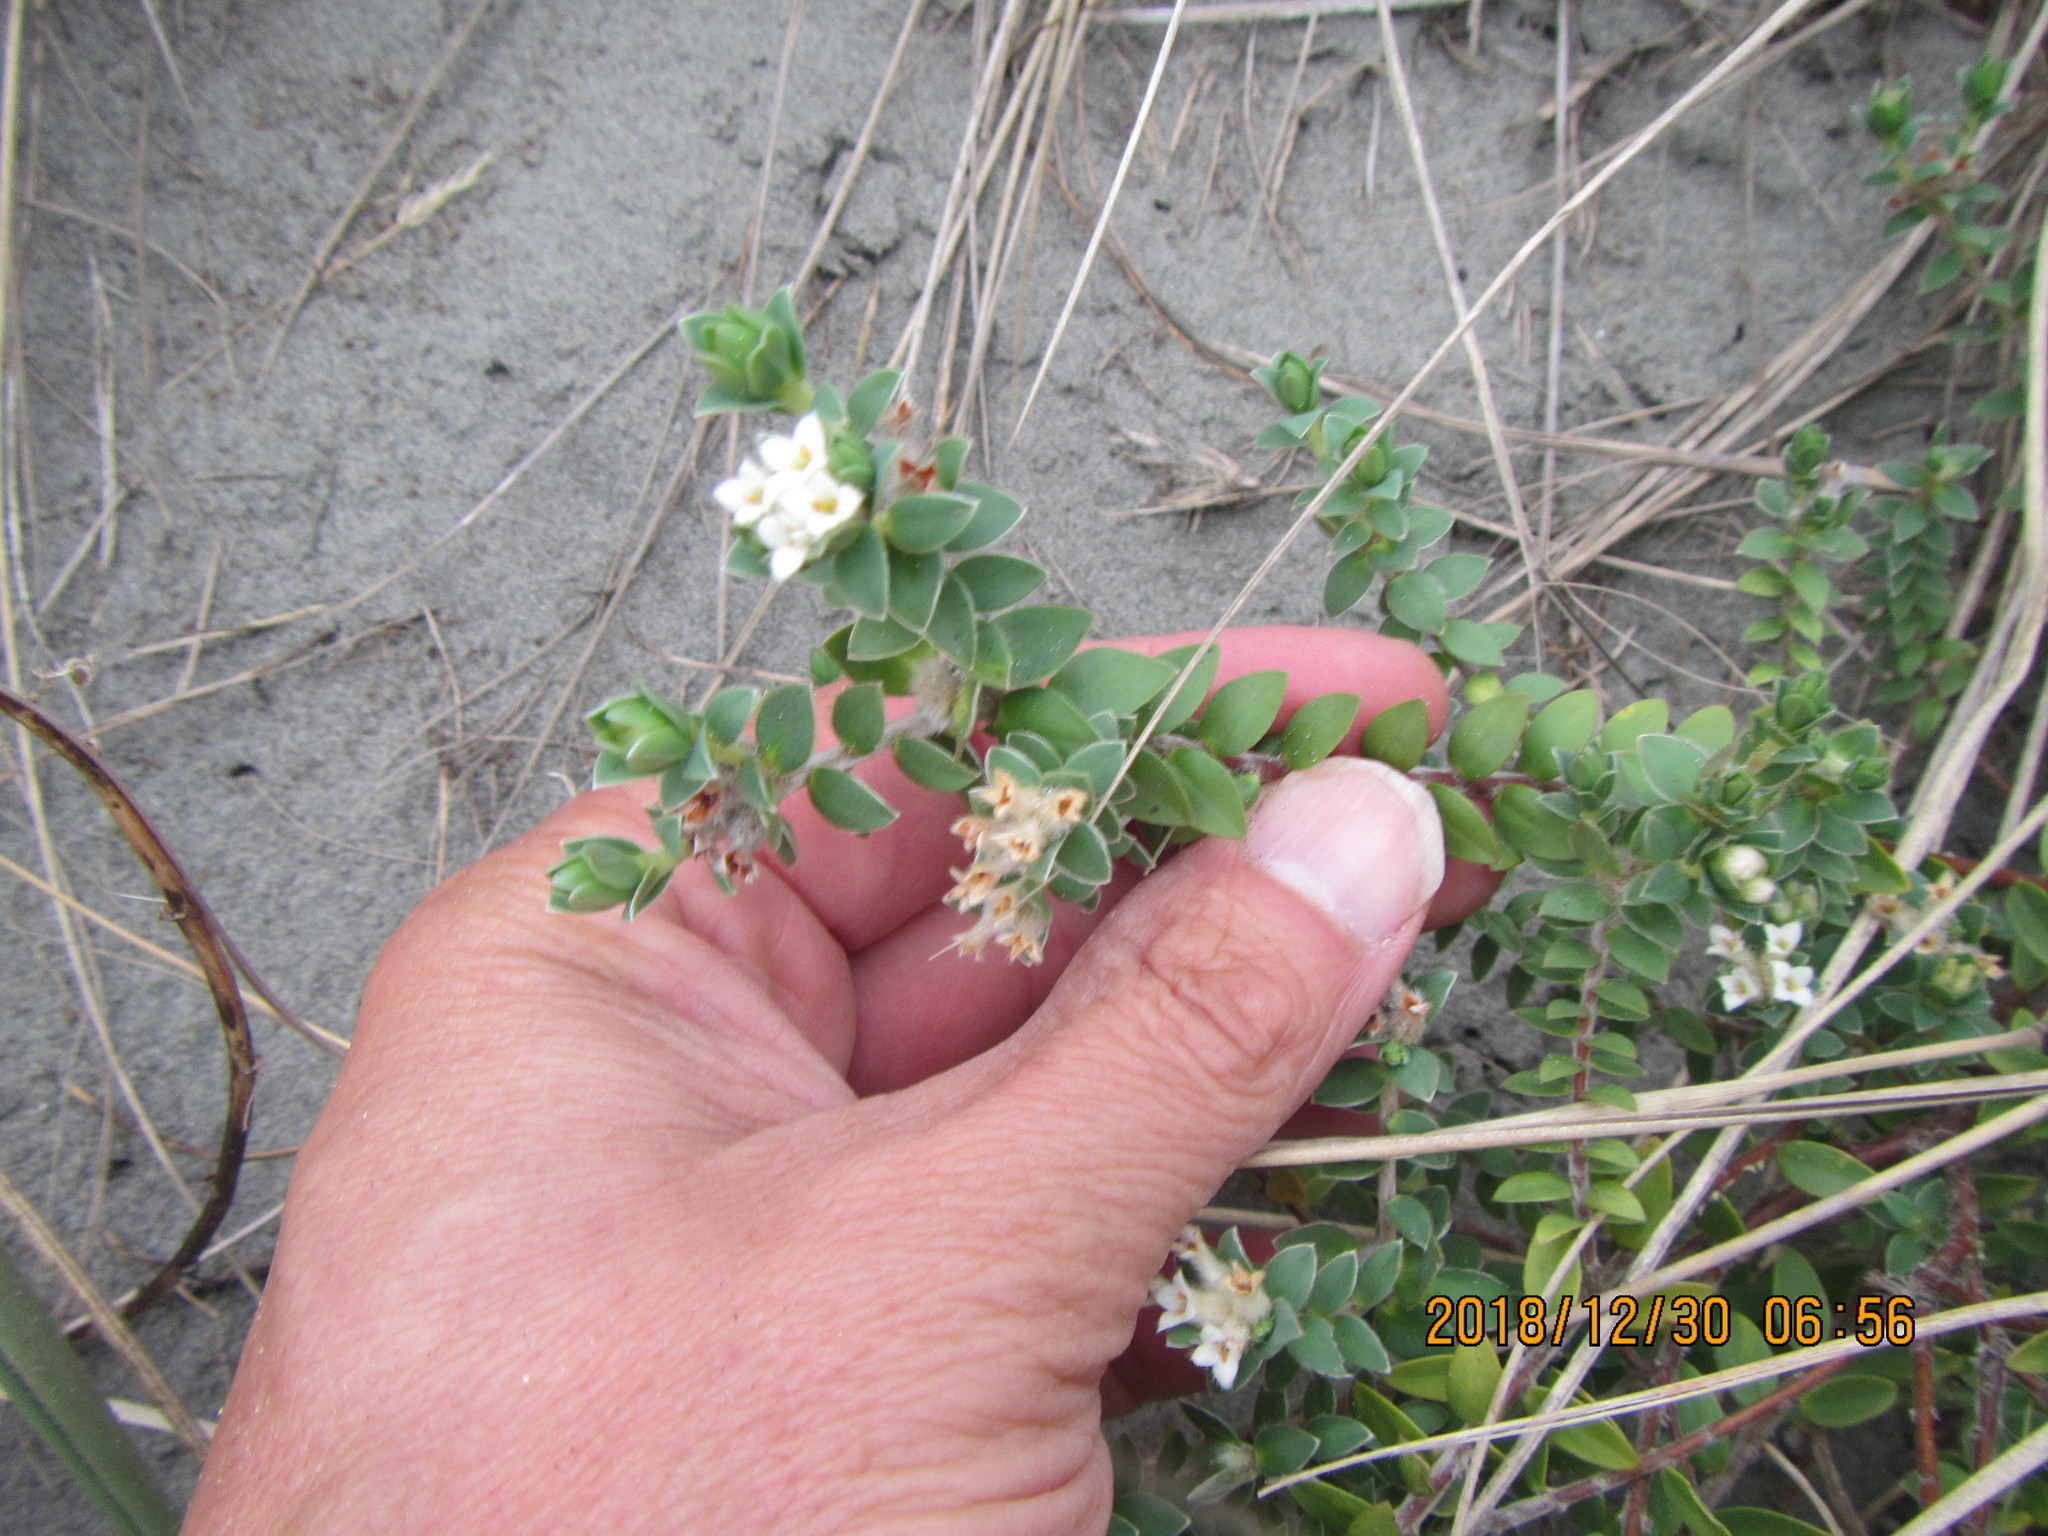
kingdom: Plantae
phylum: Tracheophyta
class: Magnoliopsida
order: Malvales
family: Thymelaeaceae
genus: Pimelea
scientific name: Pimelea villosa
